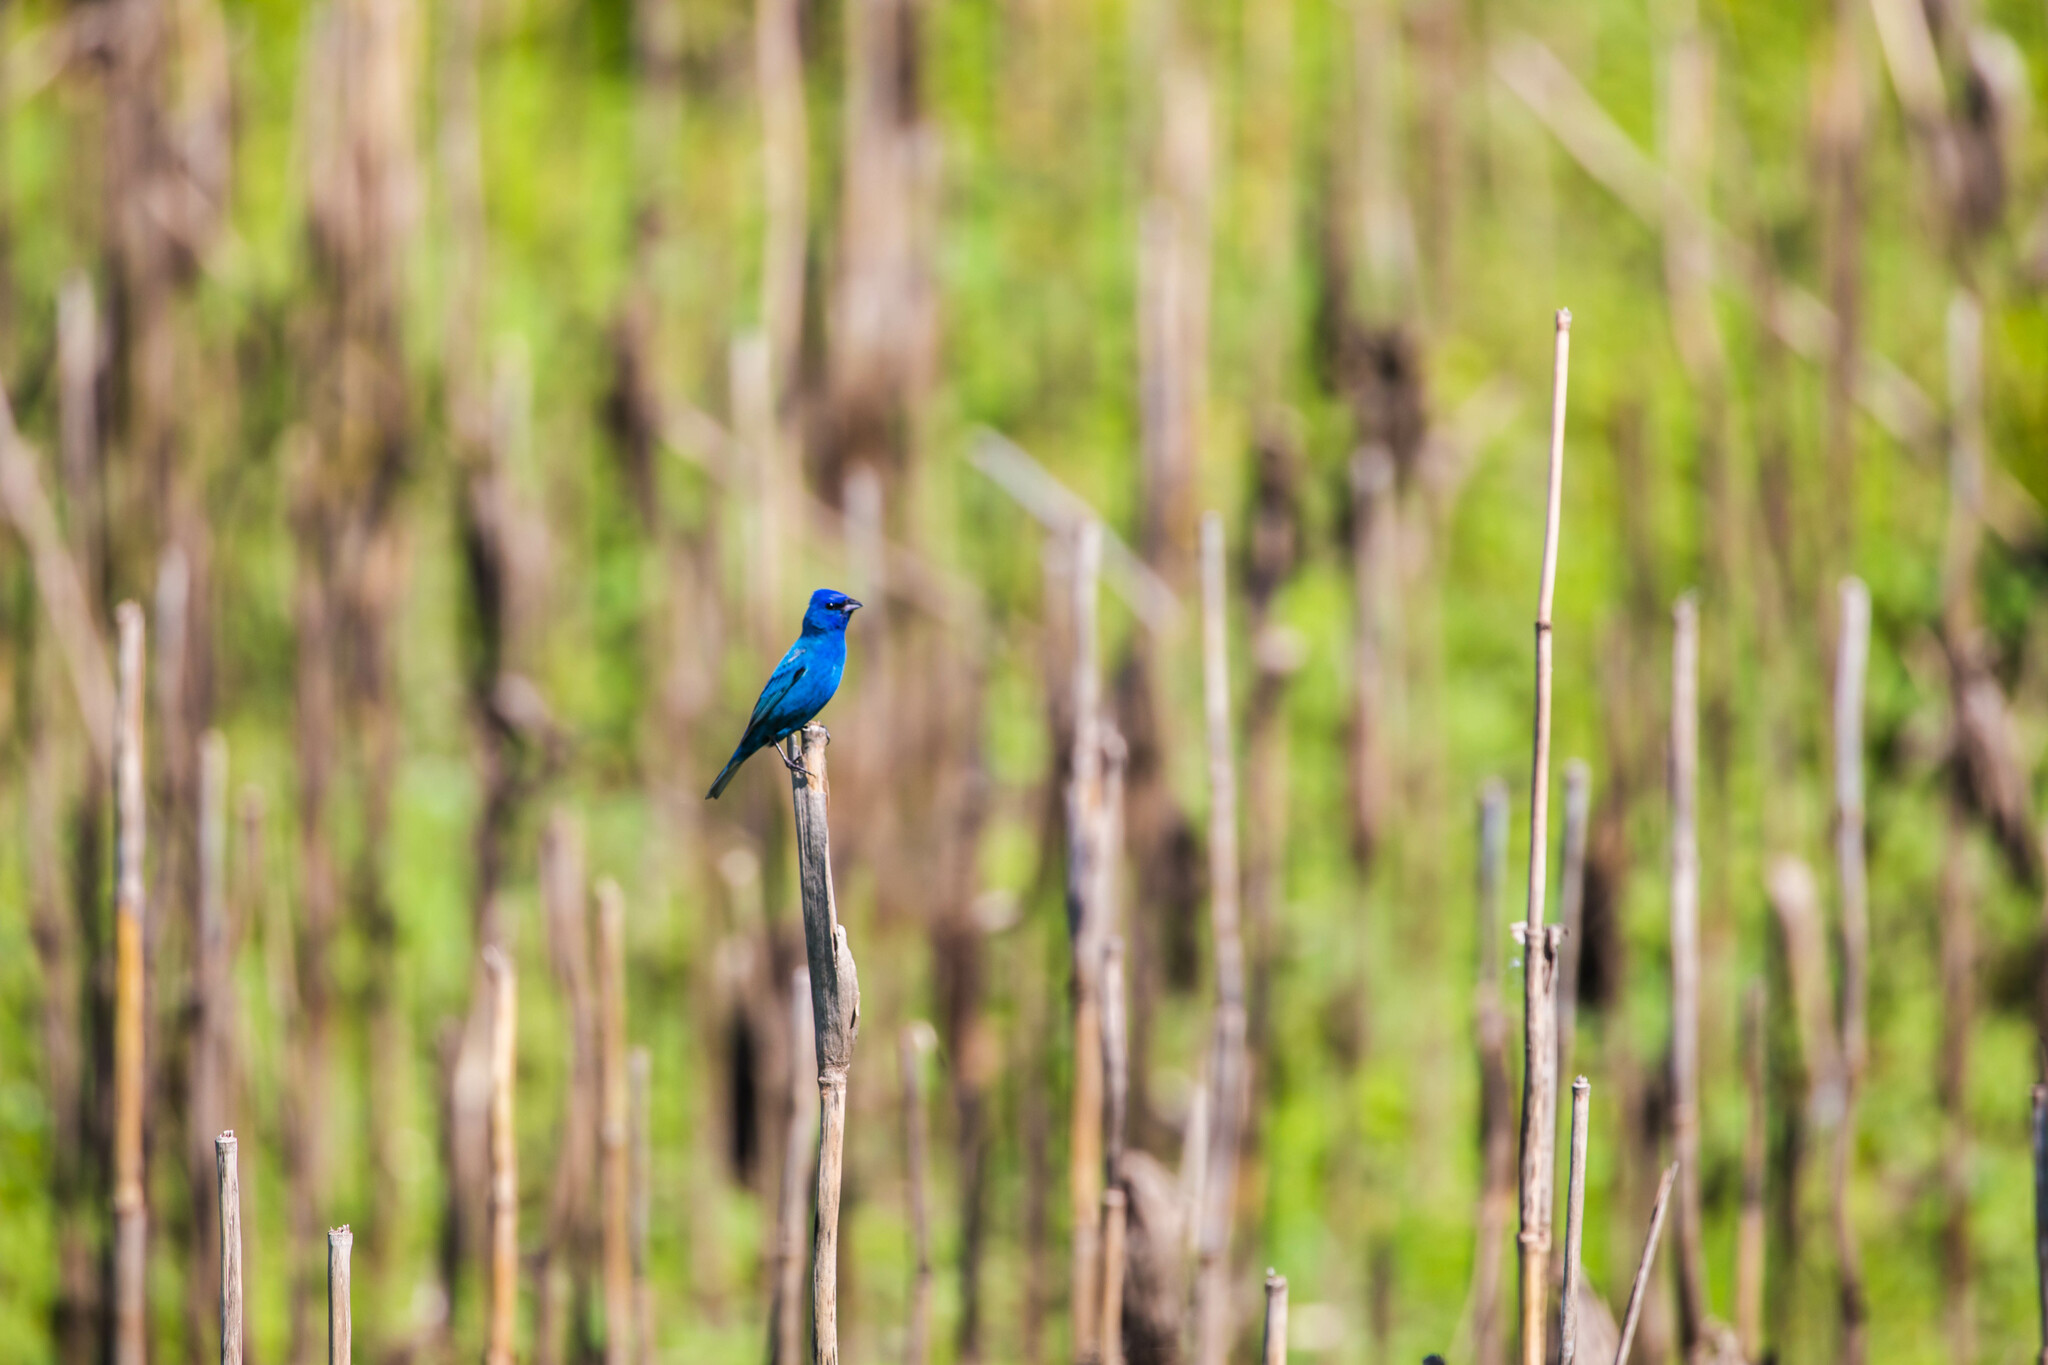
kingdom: Animalia
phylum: Chordata
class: Aves
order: Passeriformes
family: Cardinalidae
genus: Passerina
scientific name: Passerina cyanea
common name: Indigo bunting
